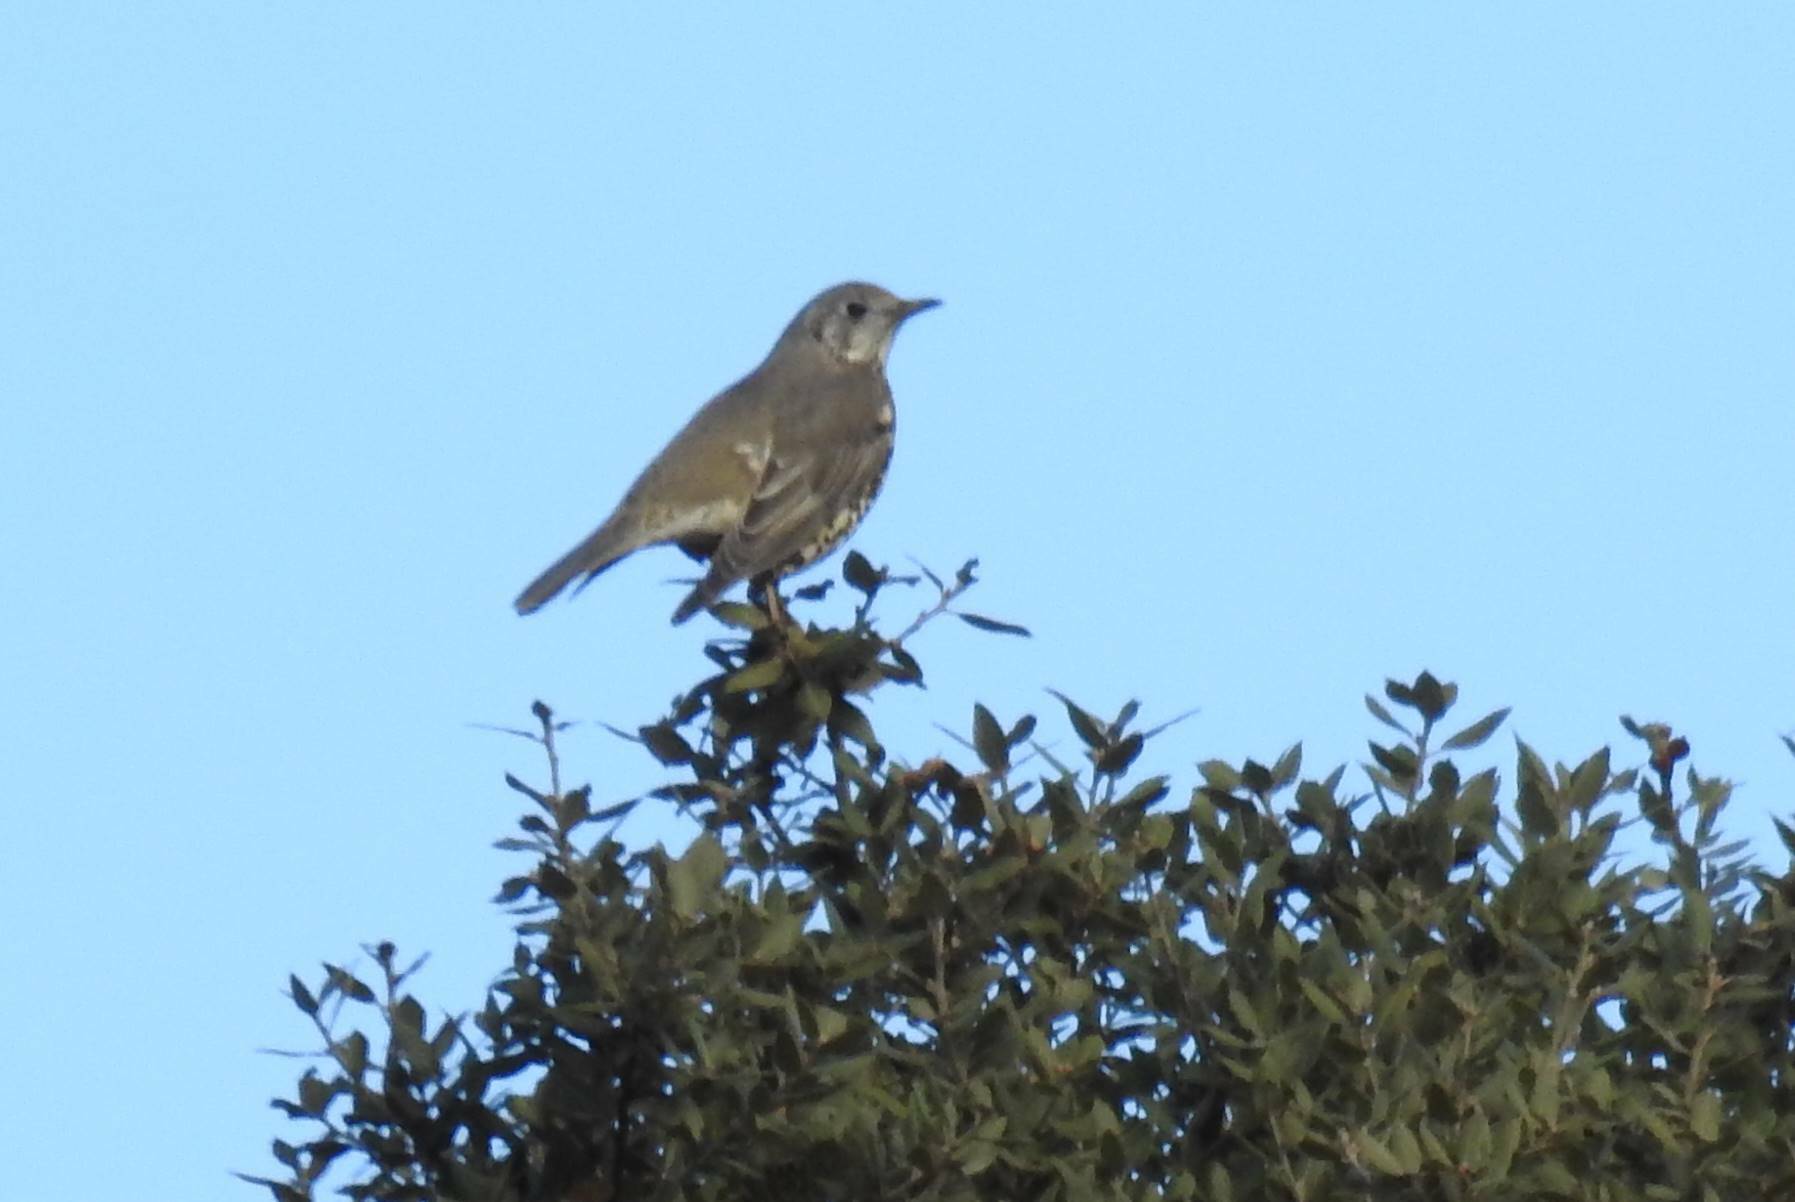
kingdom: Animalia
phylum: Chordata
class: Aves
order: Passeriformes
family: Turdidae
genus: Turdus
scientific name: Turdus viscivorus
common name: Mistle thrush
